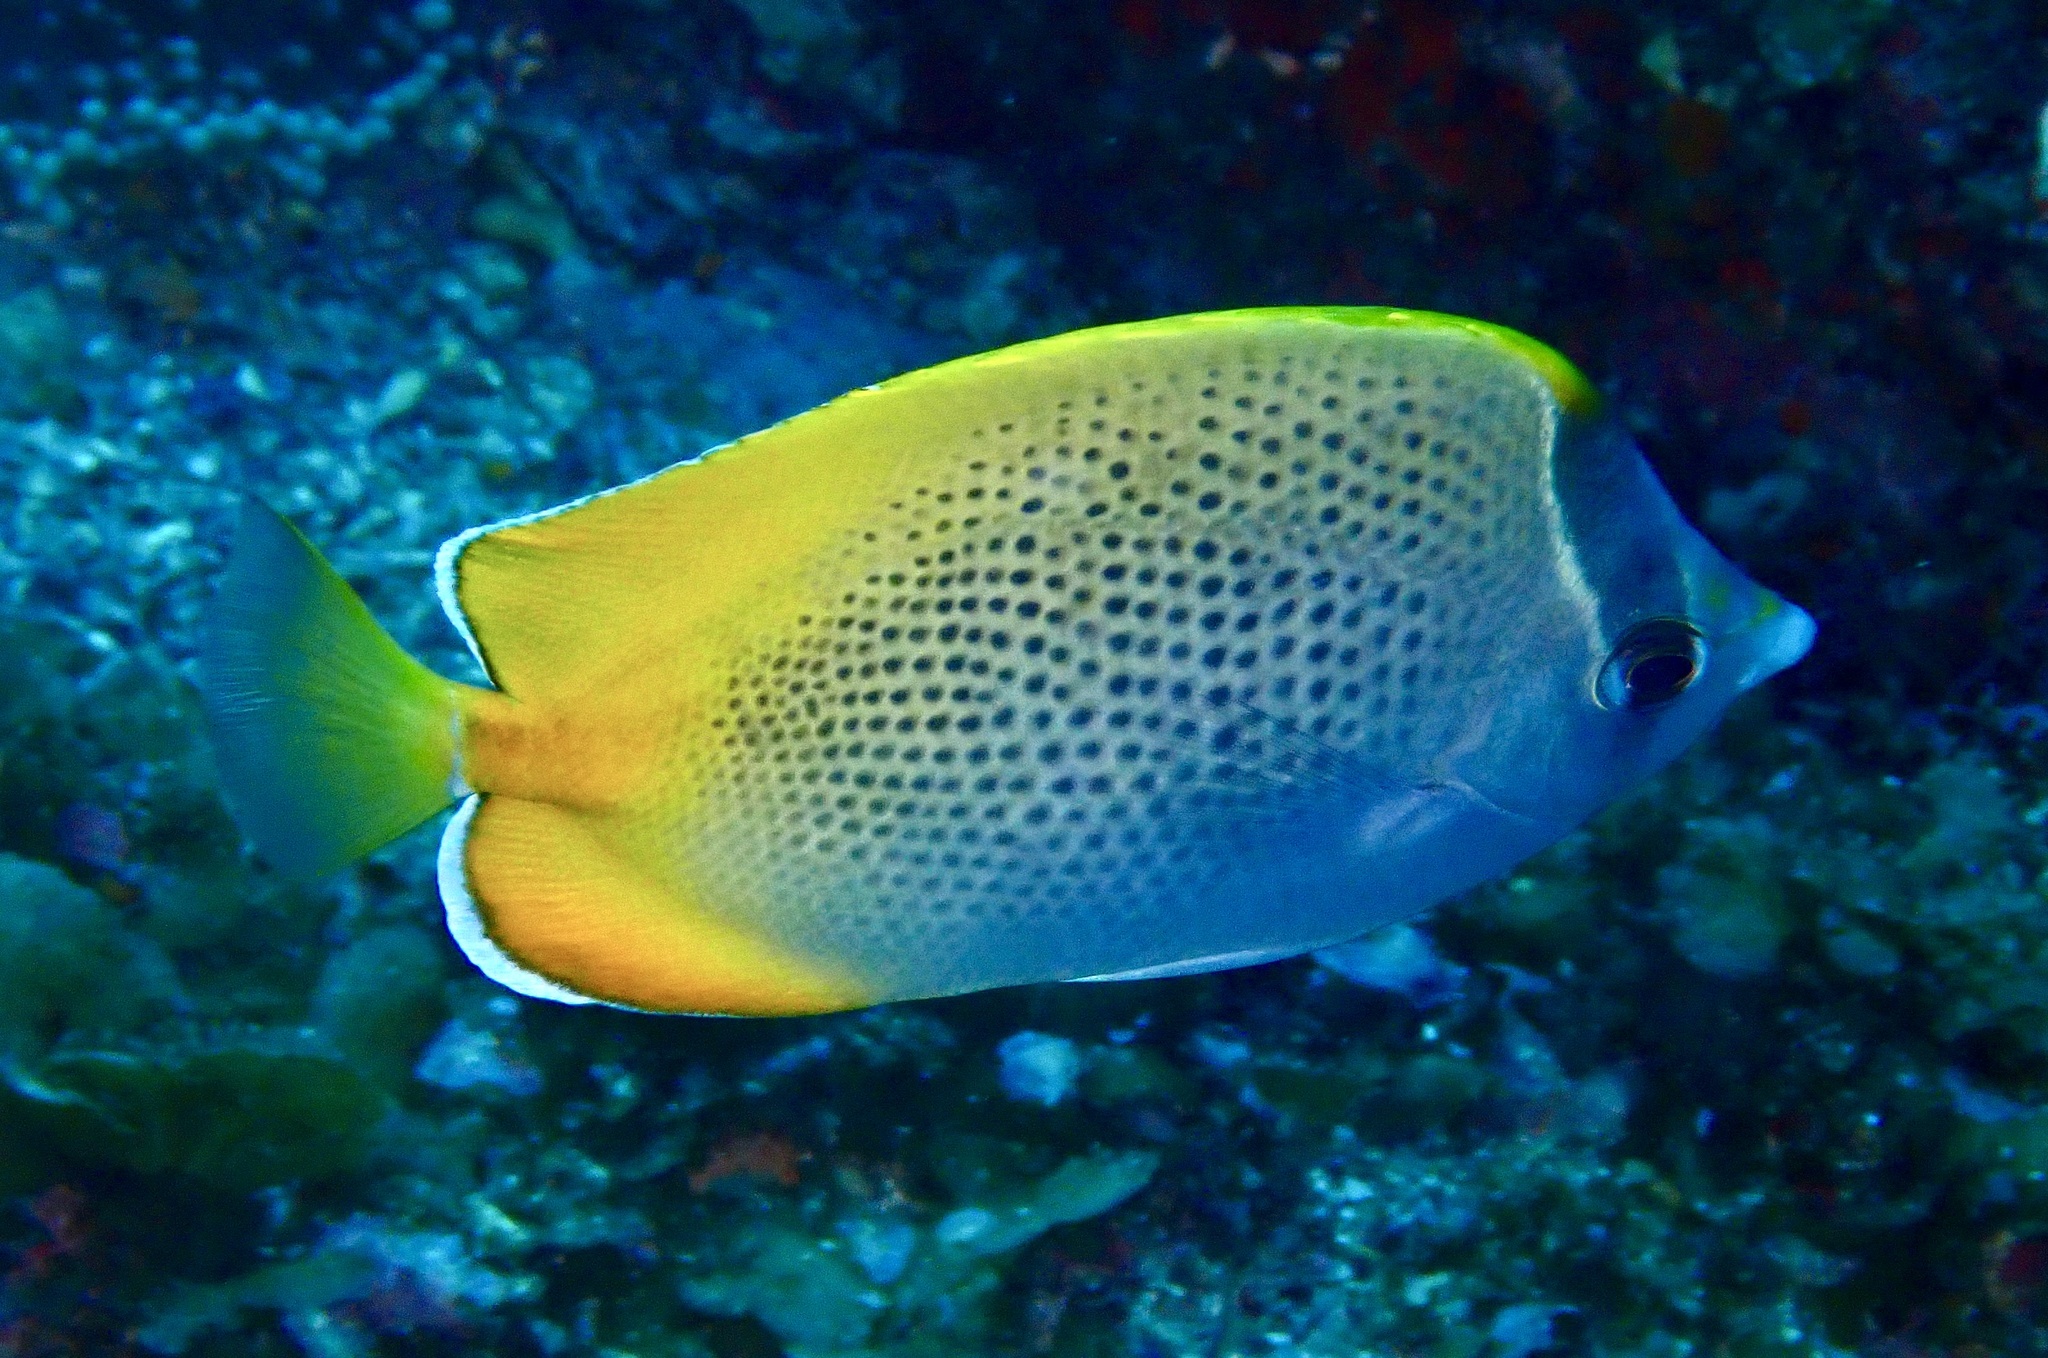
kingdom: Animalia
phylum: Chordata
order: Perciformes
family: Chaetodontidae
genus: Chaetodon
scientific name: Chaetodon guentheri
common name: Gunther's butterflyfish
